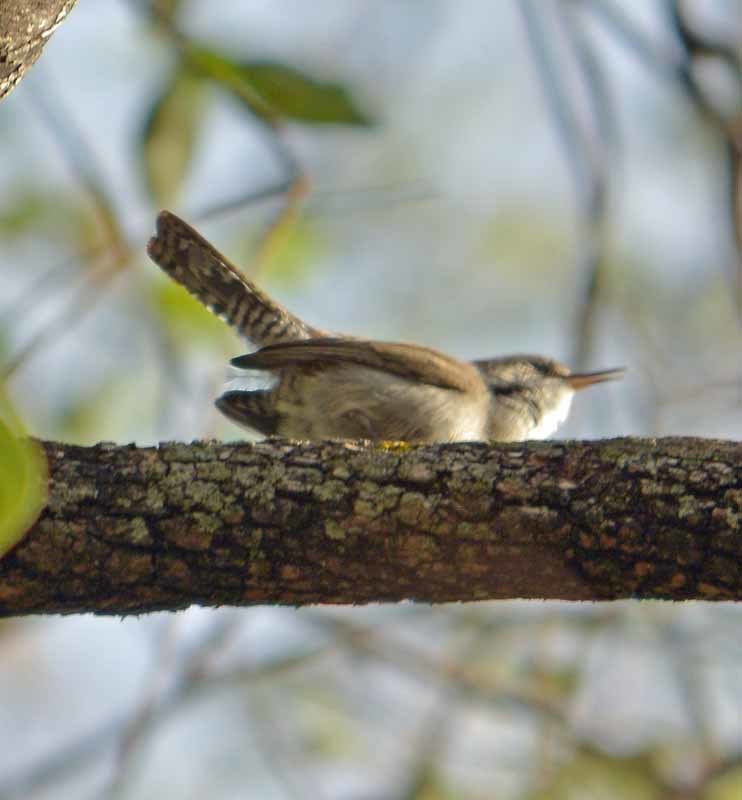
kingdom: Animalia
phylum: Chordata
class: Aves
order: Passeriformes
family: Troglodytidae
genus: Thryomanes
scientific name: Thryomanes bewickii
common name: Bewick's wren
